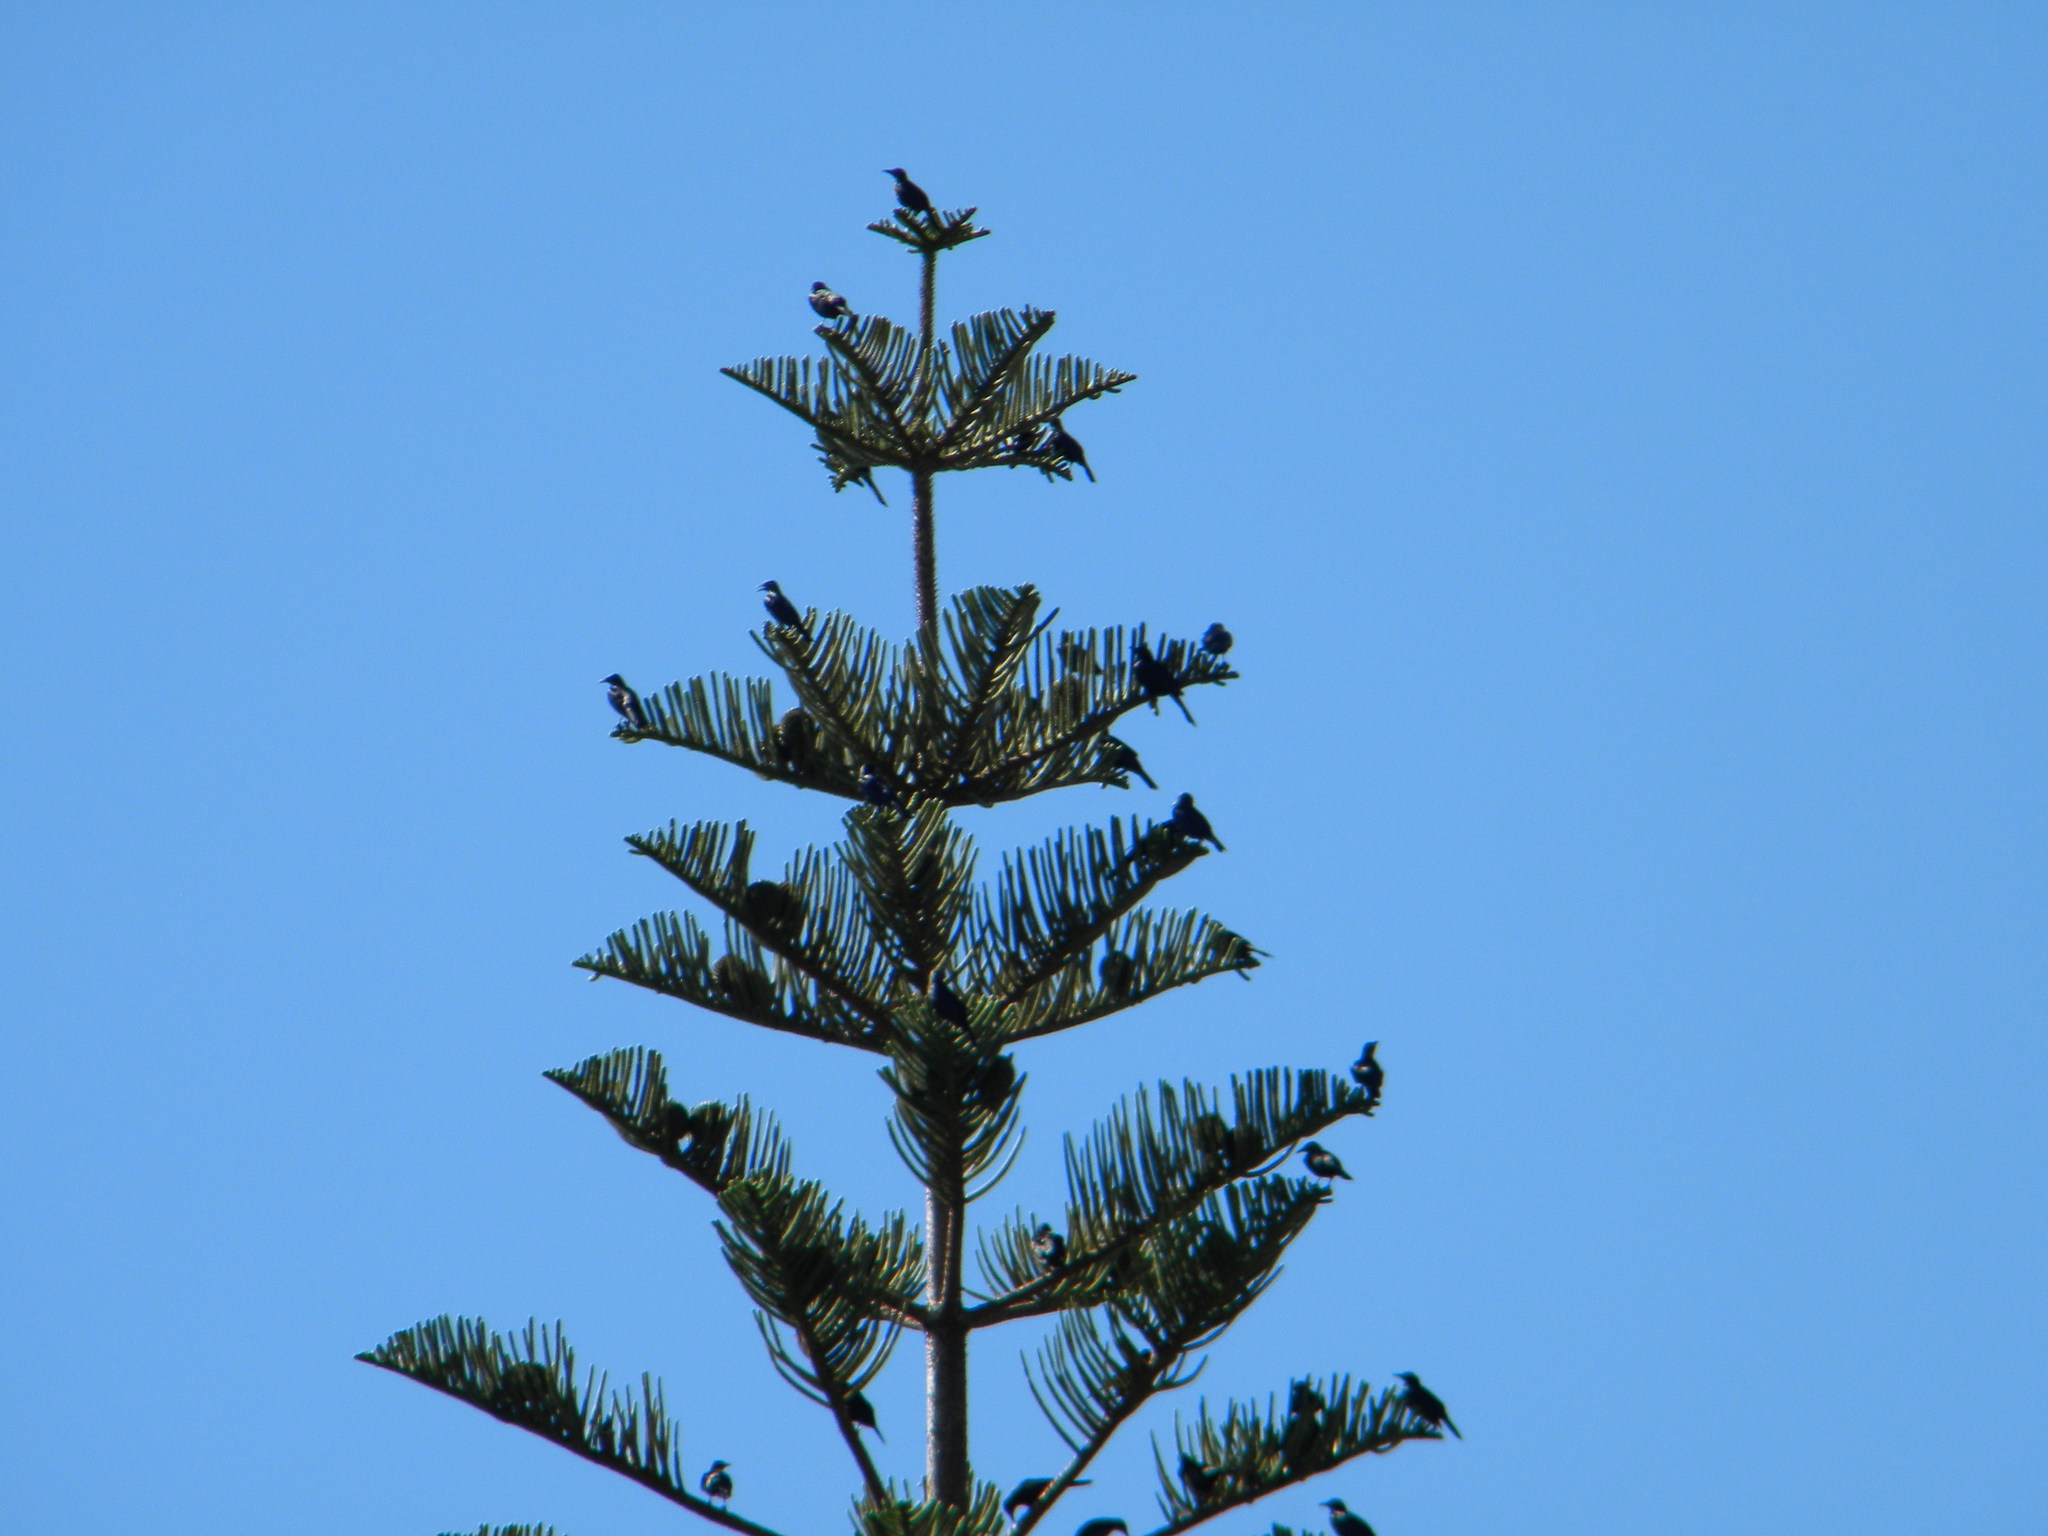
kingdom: Animalia
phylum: Chordata
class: Aves
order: Passeriformes
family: Sturnidae
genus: Onychognathus
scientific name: Onychognathus morio
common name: Red-winged starling
